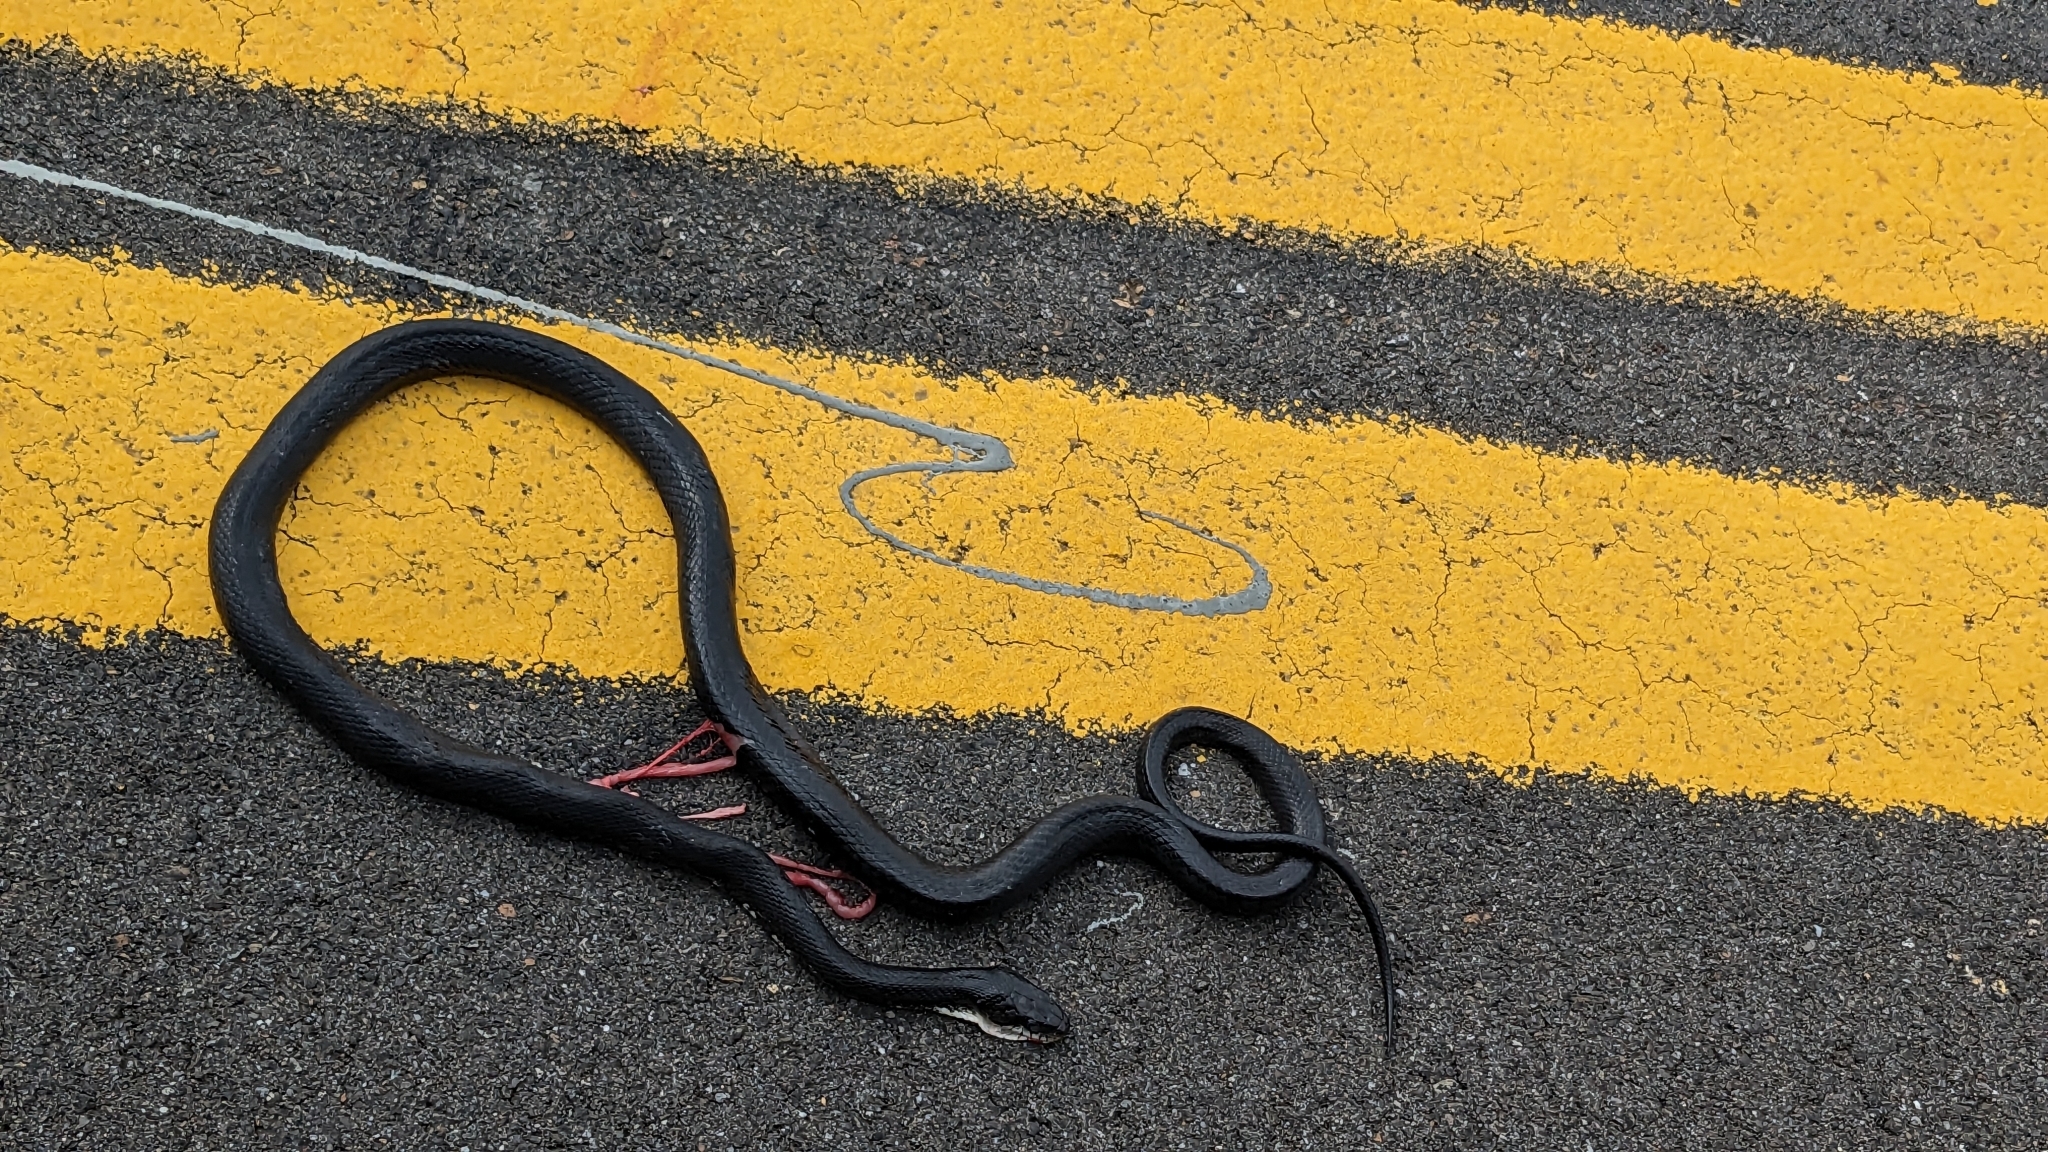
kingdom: Animalia
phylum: Chordata
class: Squamata
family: Colubridae
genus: Coluber
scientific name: Coluber constrictor
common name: Eastern racer
